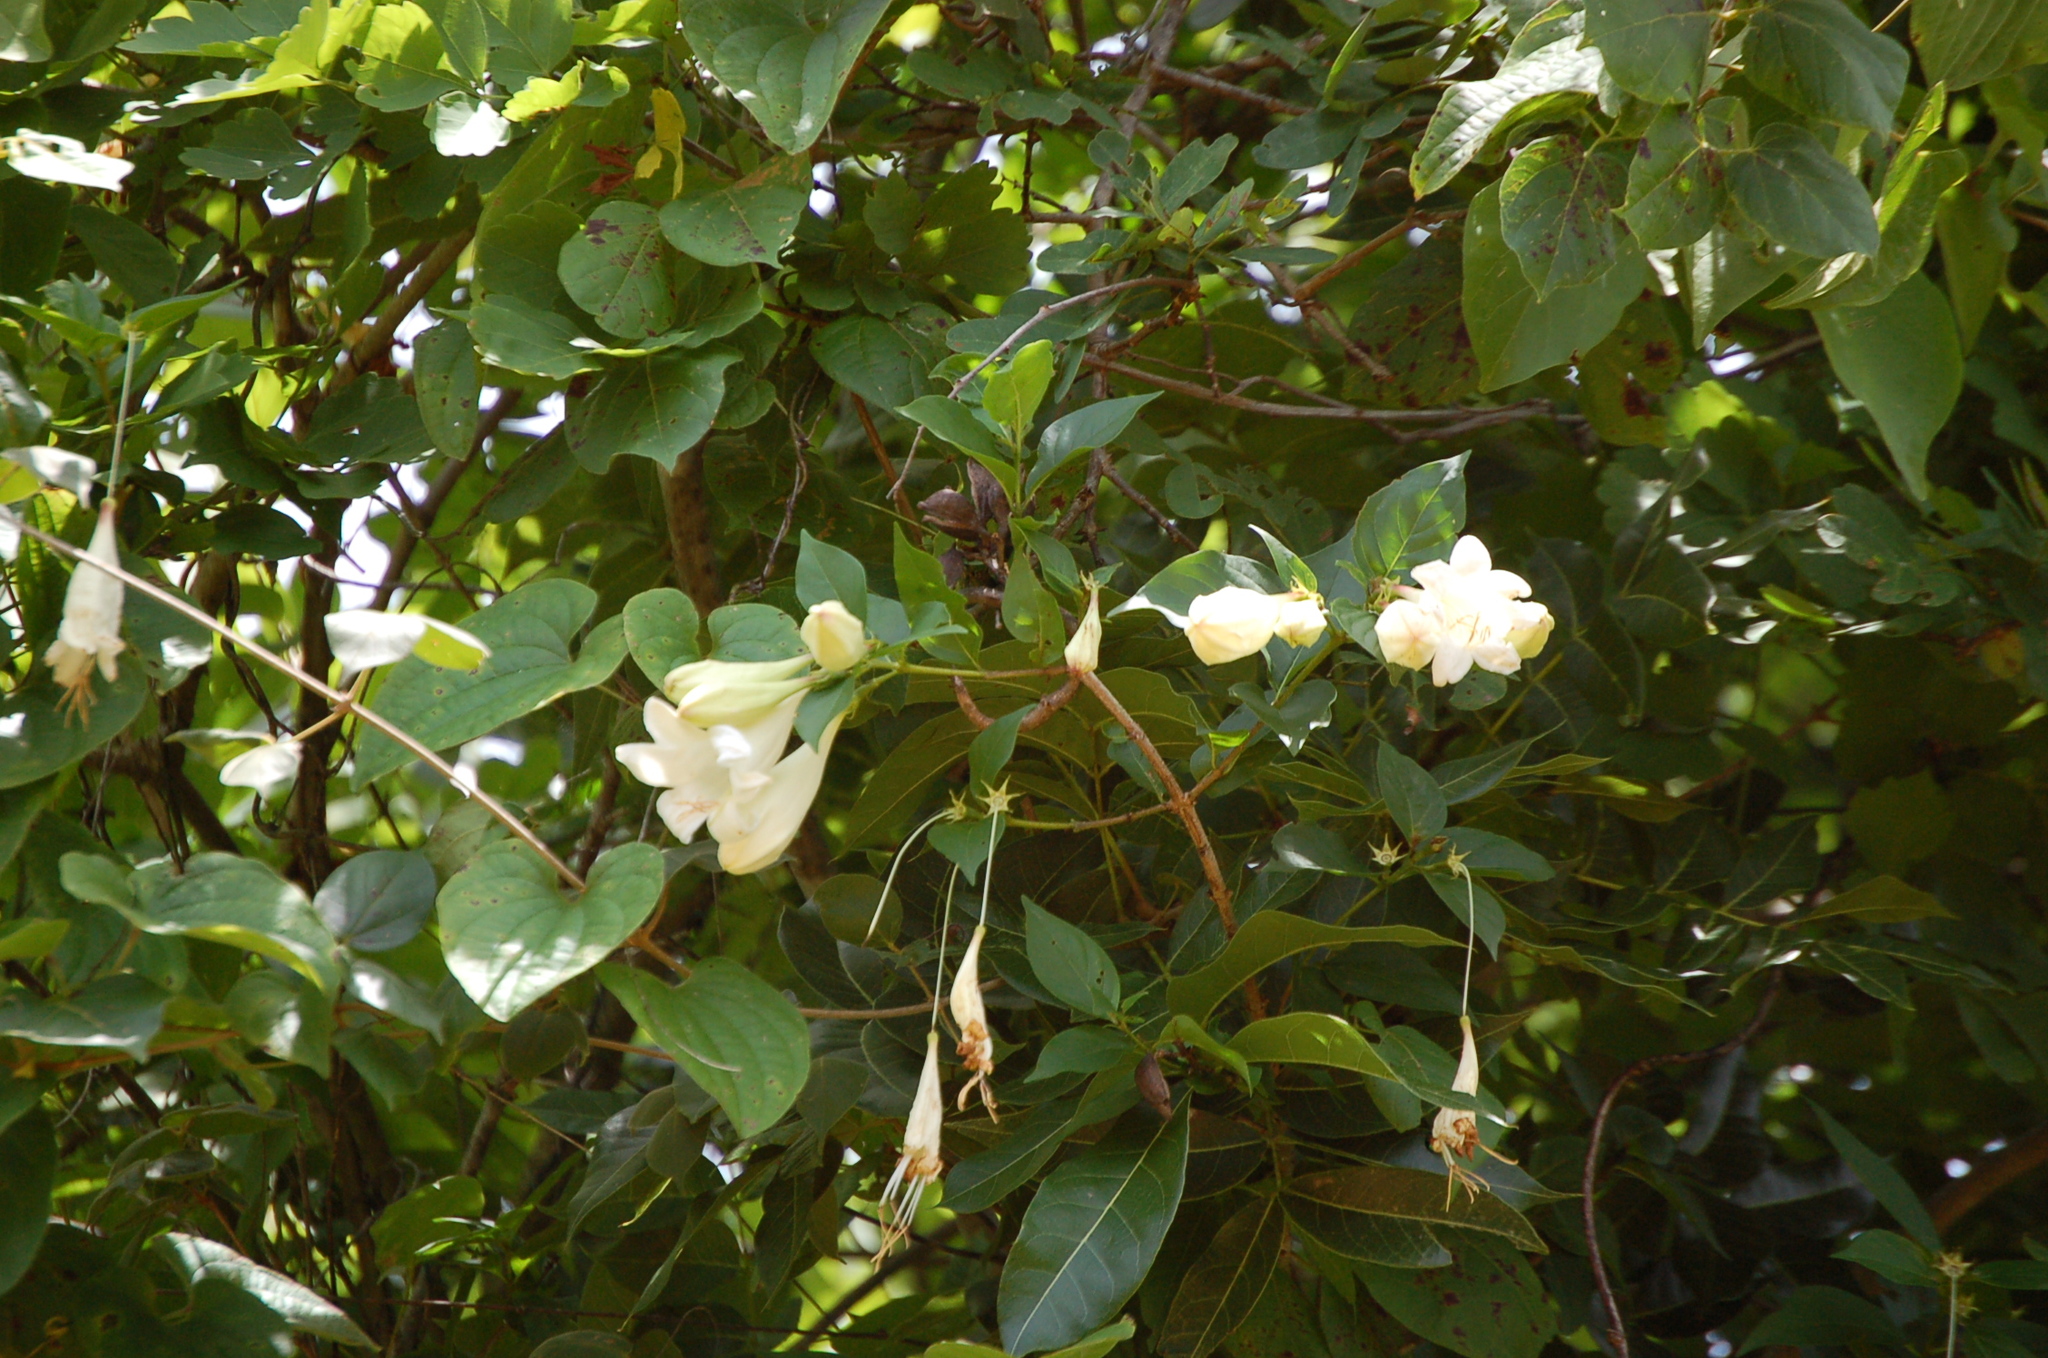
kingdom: Plantae
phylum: Tracheophyta
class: Magnoliopsida
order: Gentianales
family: Rubiaceae
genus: Coutarea
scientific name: Coutarea hexandra
